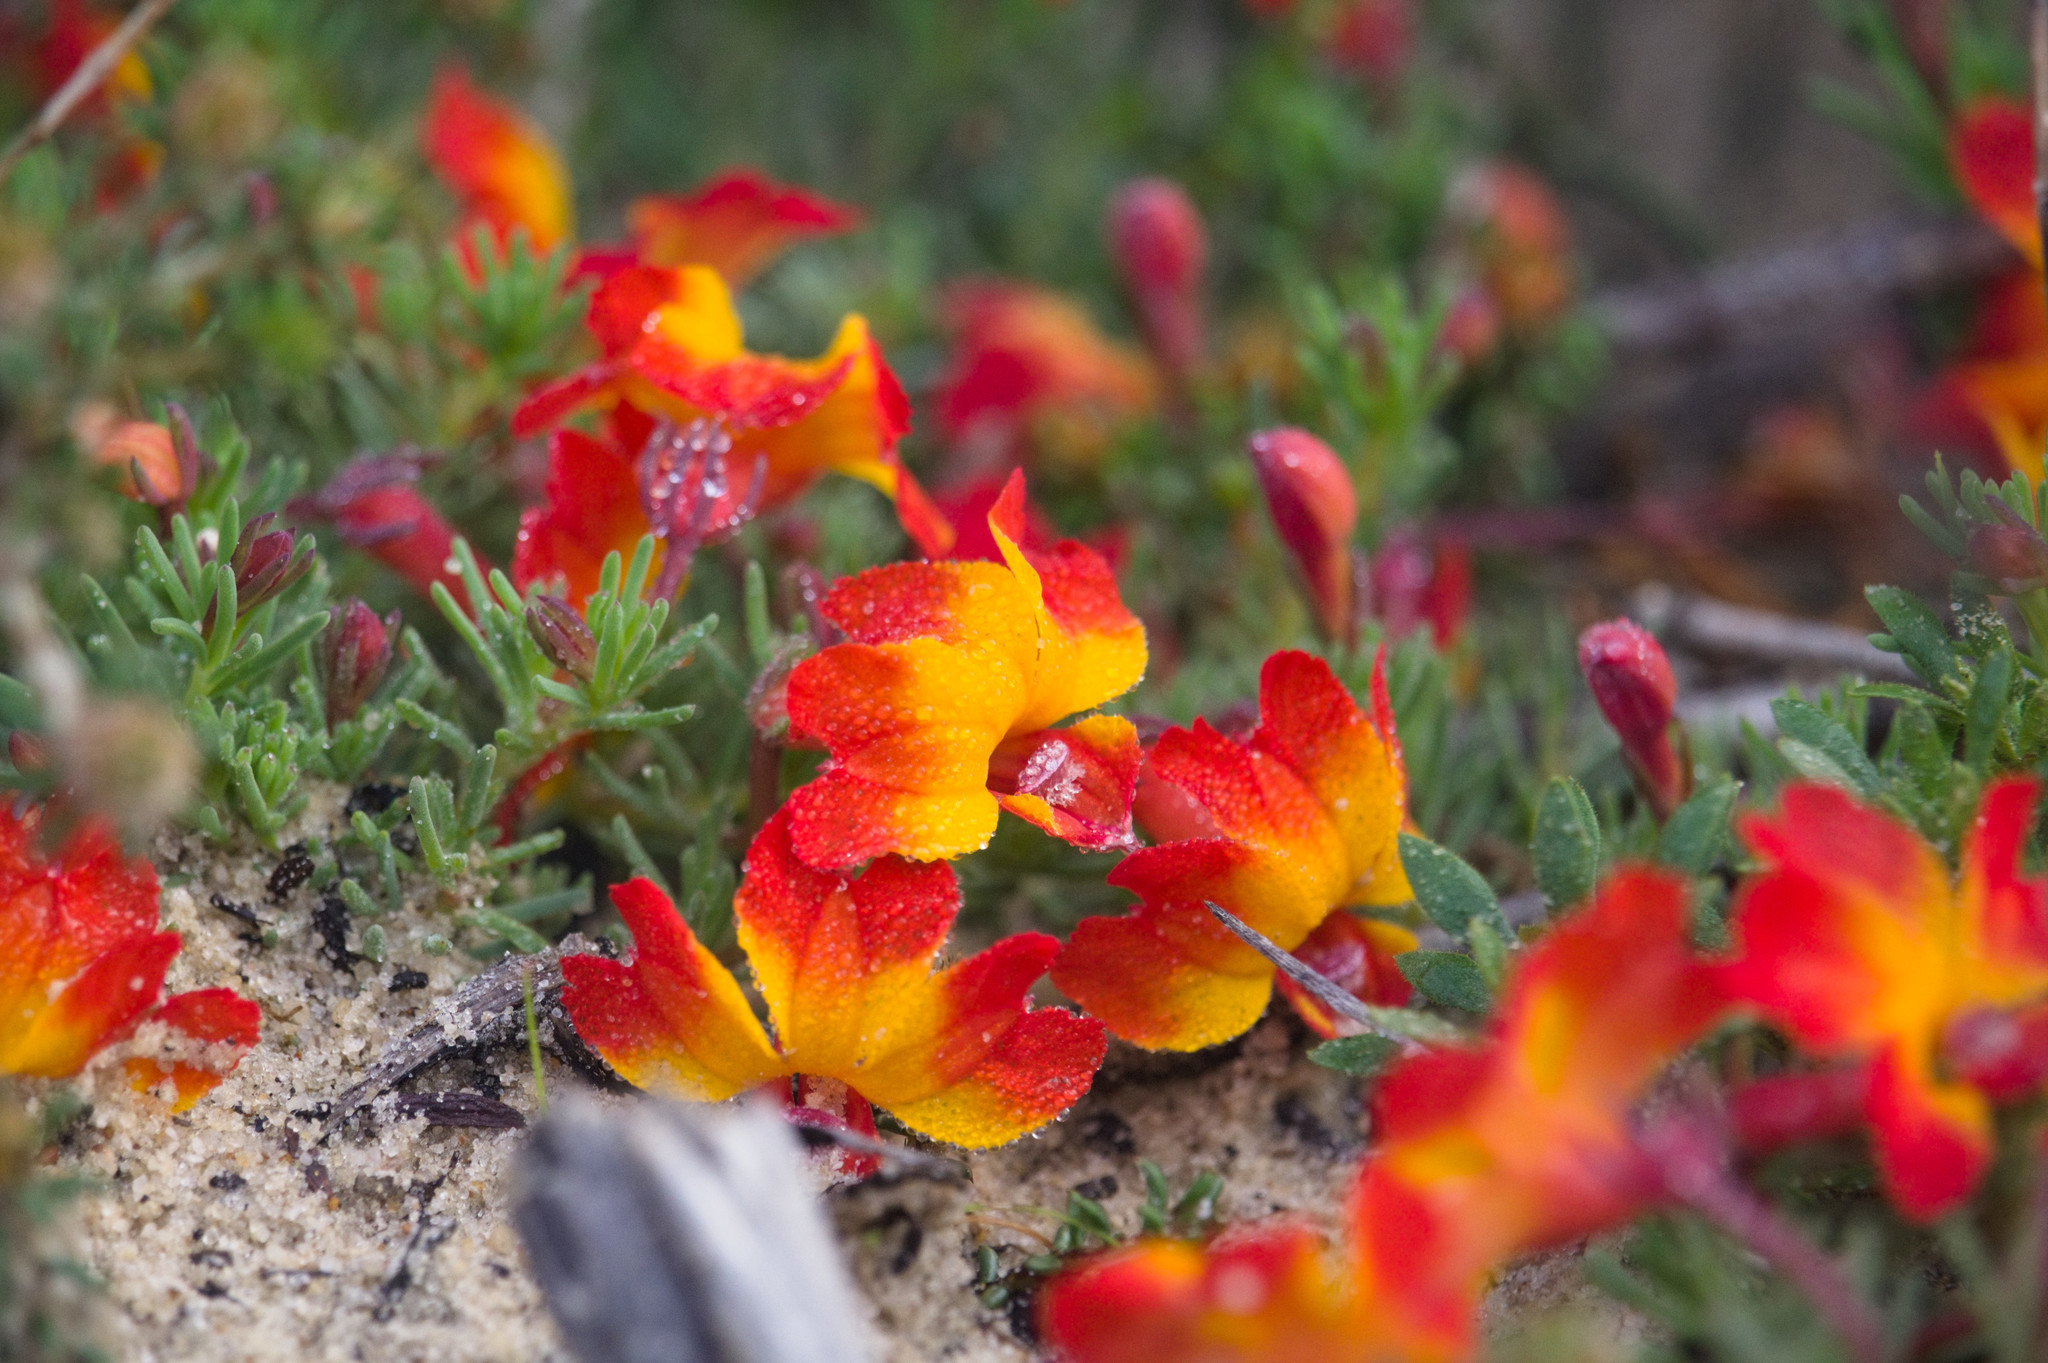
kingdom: Plantae
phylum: Tracheophyta
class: Magnoliopsida
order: Asterales
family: Goodeniaceae
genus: Lechenaultia
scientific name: Lechenaultia formosa
